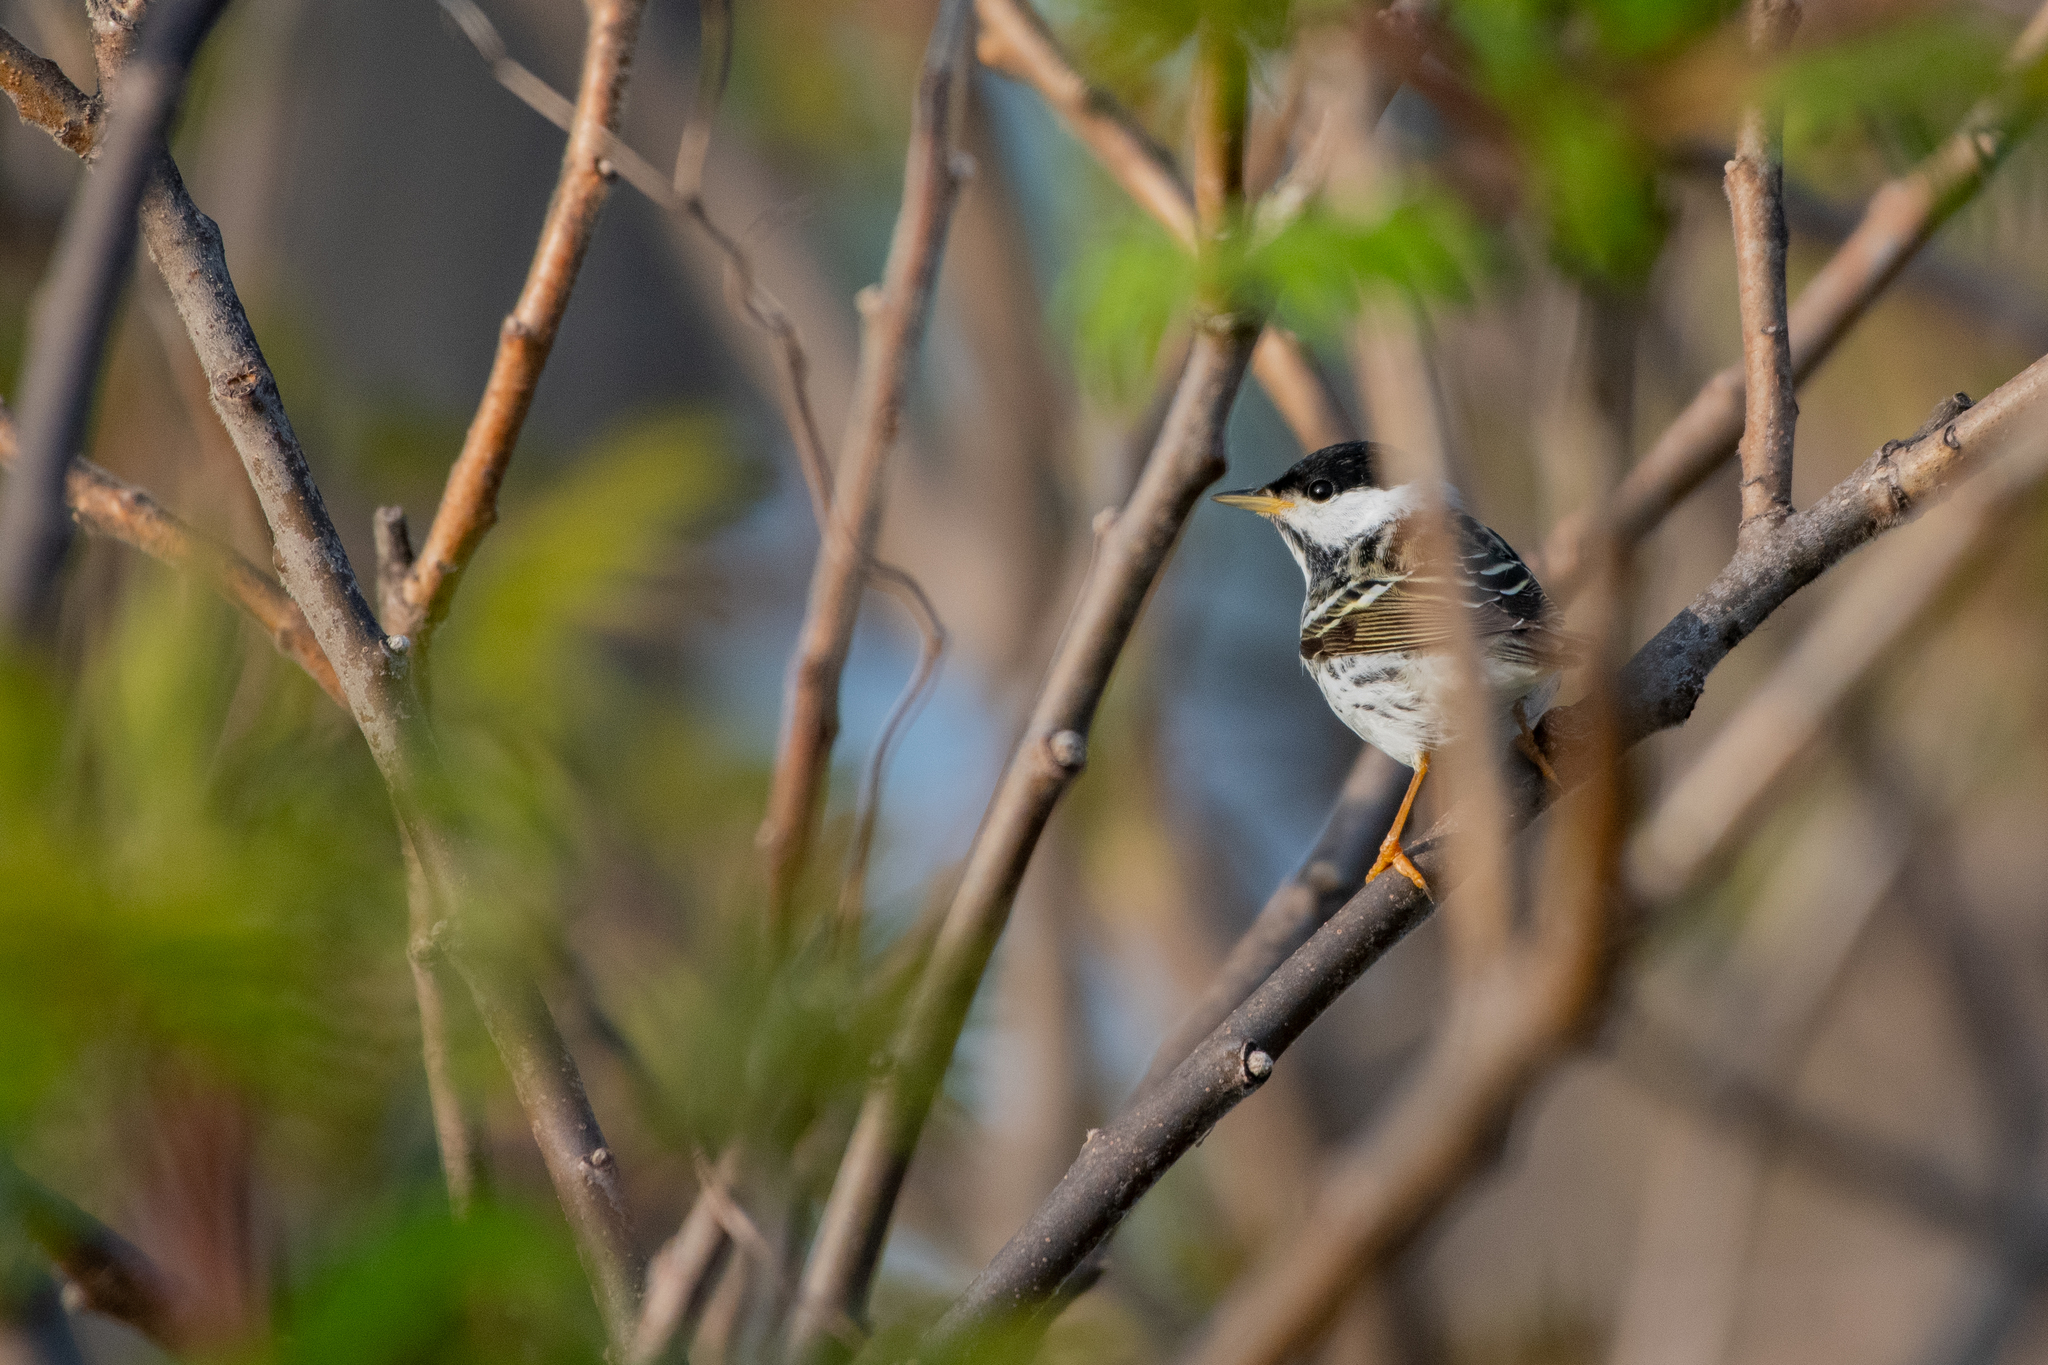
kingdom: Animalia
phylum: Chordata
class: Aves
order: Passeriformes
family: Parulidae
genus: Setophaga
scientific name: Setophaga striata
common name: Blackpoll warbler
